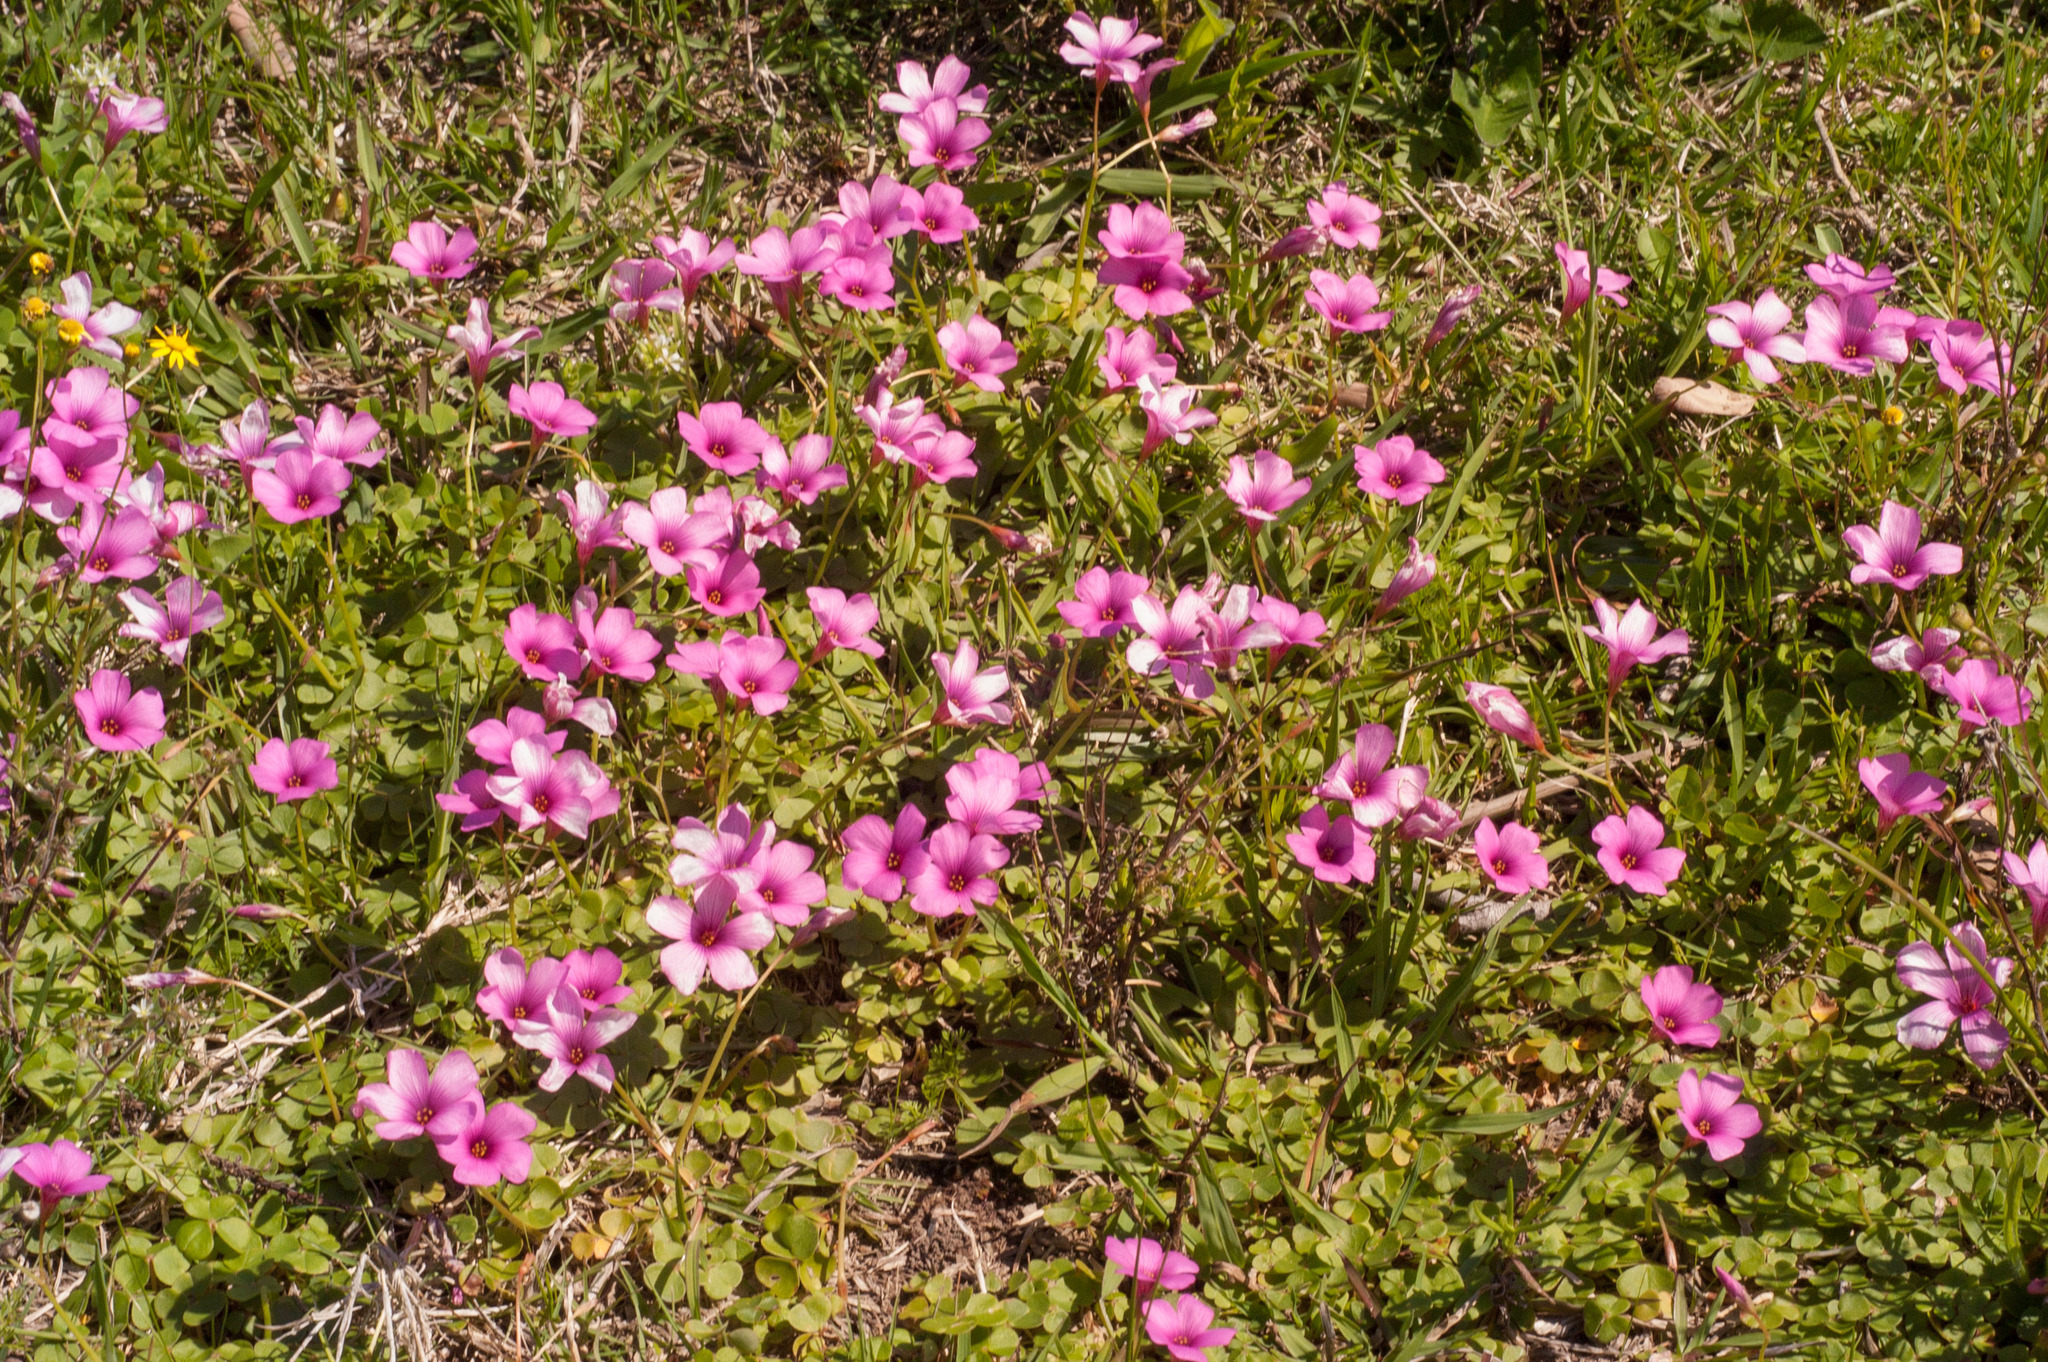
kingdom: Plantae
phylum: Tracheophyta
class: Magnoliopsida
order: Oxalidales
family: Oxalidaceae
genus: Oxalis
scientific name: Oxalis brasiliensis
